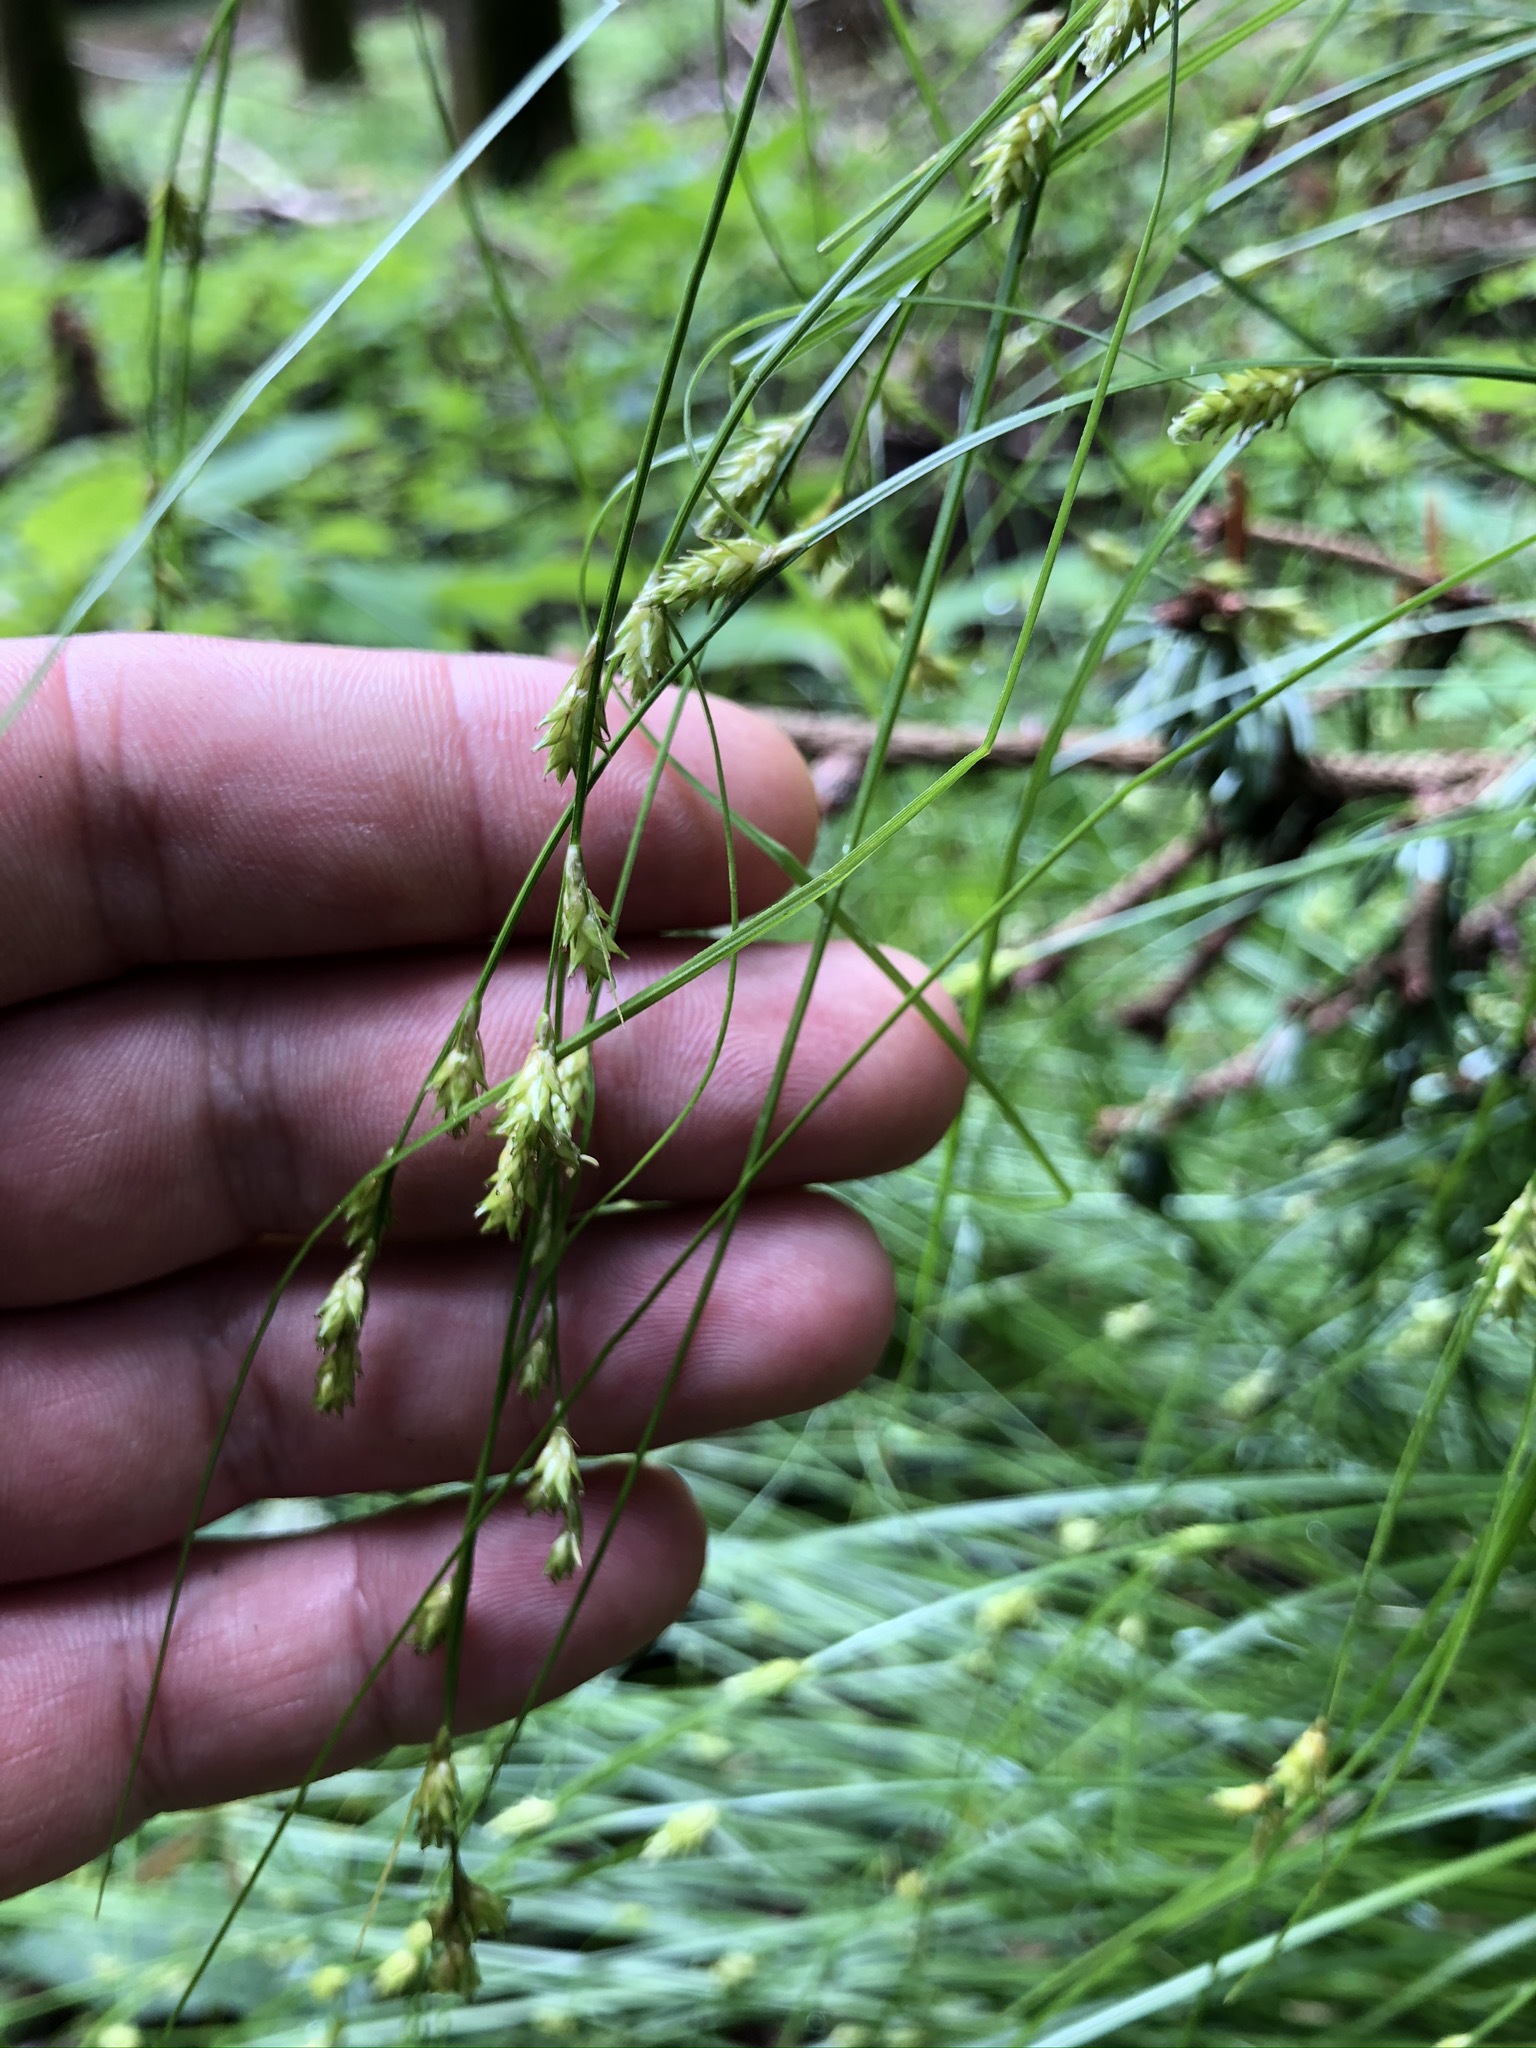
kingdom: Plantae
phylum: Tracheophyta
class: Liliopsida
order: Poales
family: Cyperaceae
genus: Carex
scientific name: Carex remota
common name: Remote sedge
